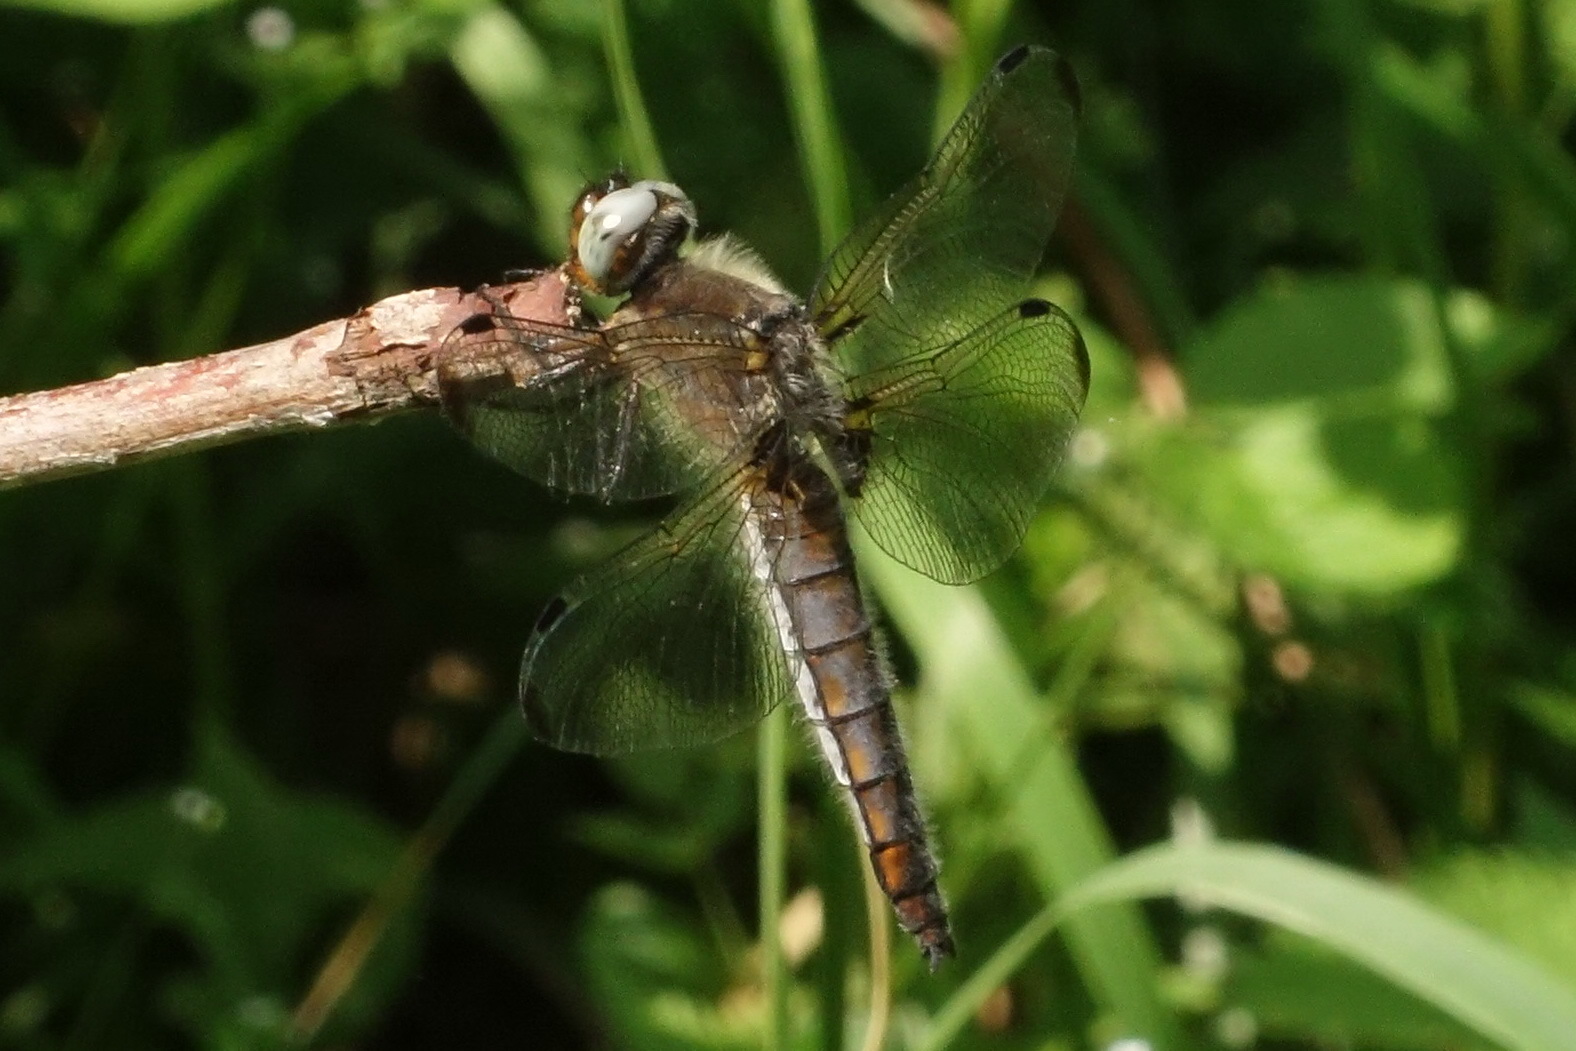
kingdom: Animalia
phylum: Arthropoda
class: Insecta
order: Odonata
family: Libellulidae
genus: Libellula
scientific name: Libellula fulva
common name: Blue chaser
